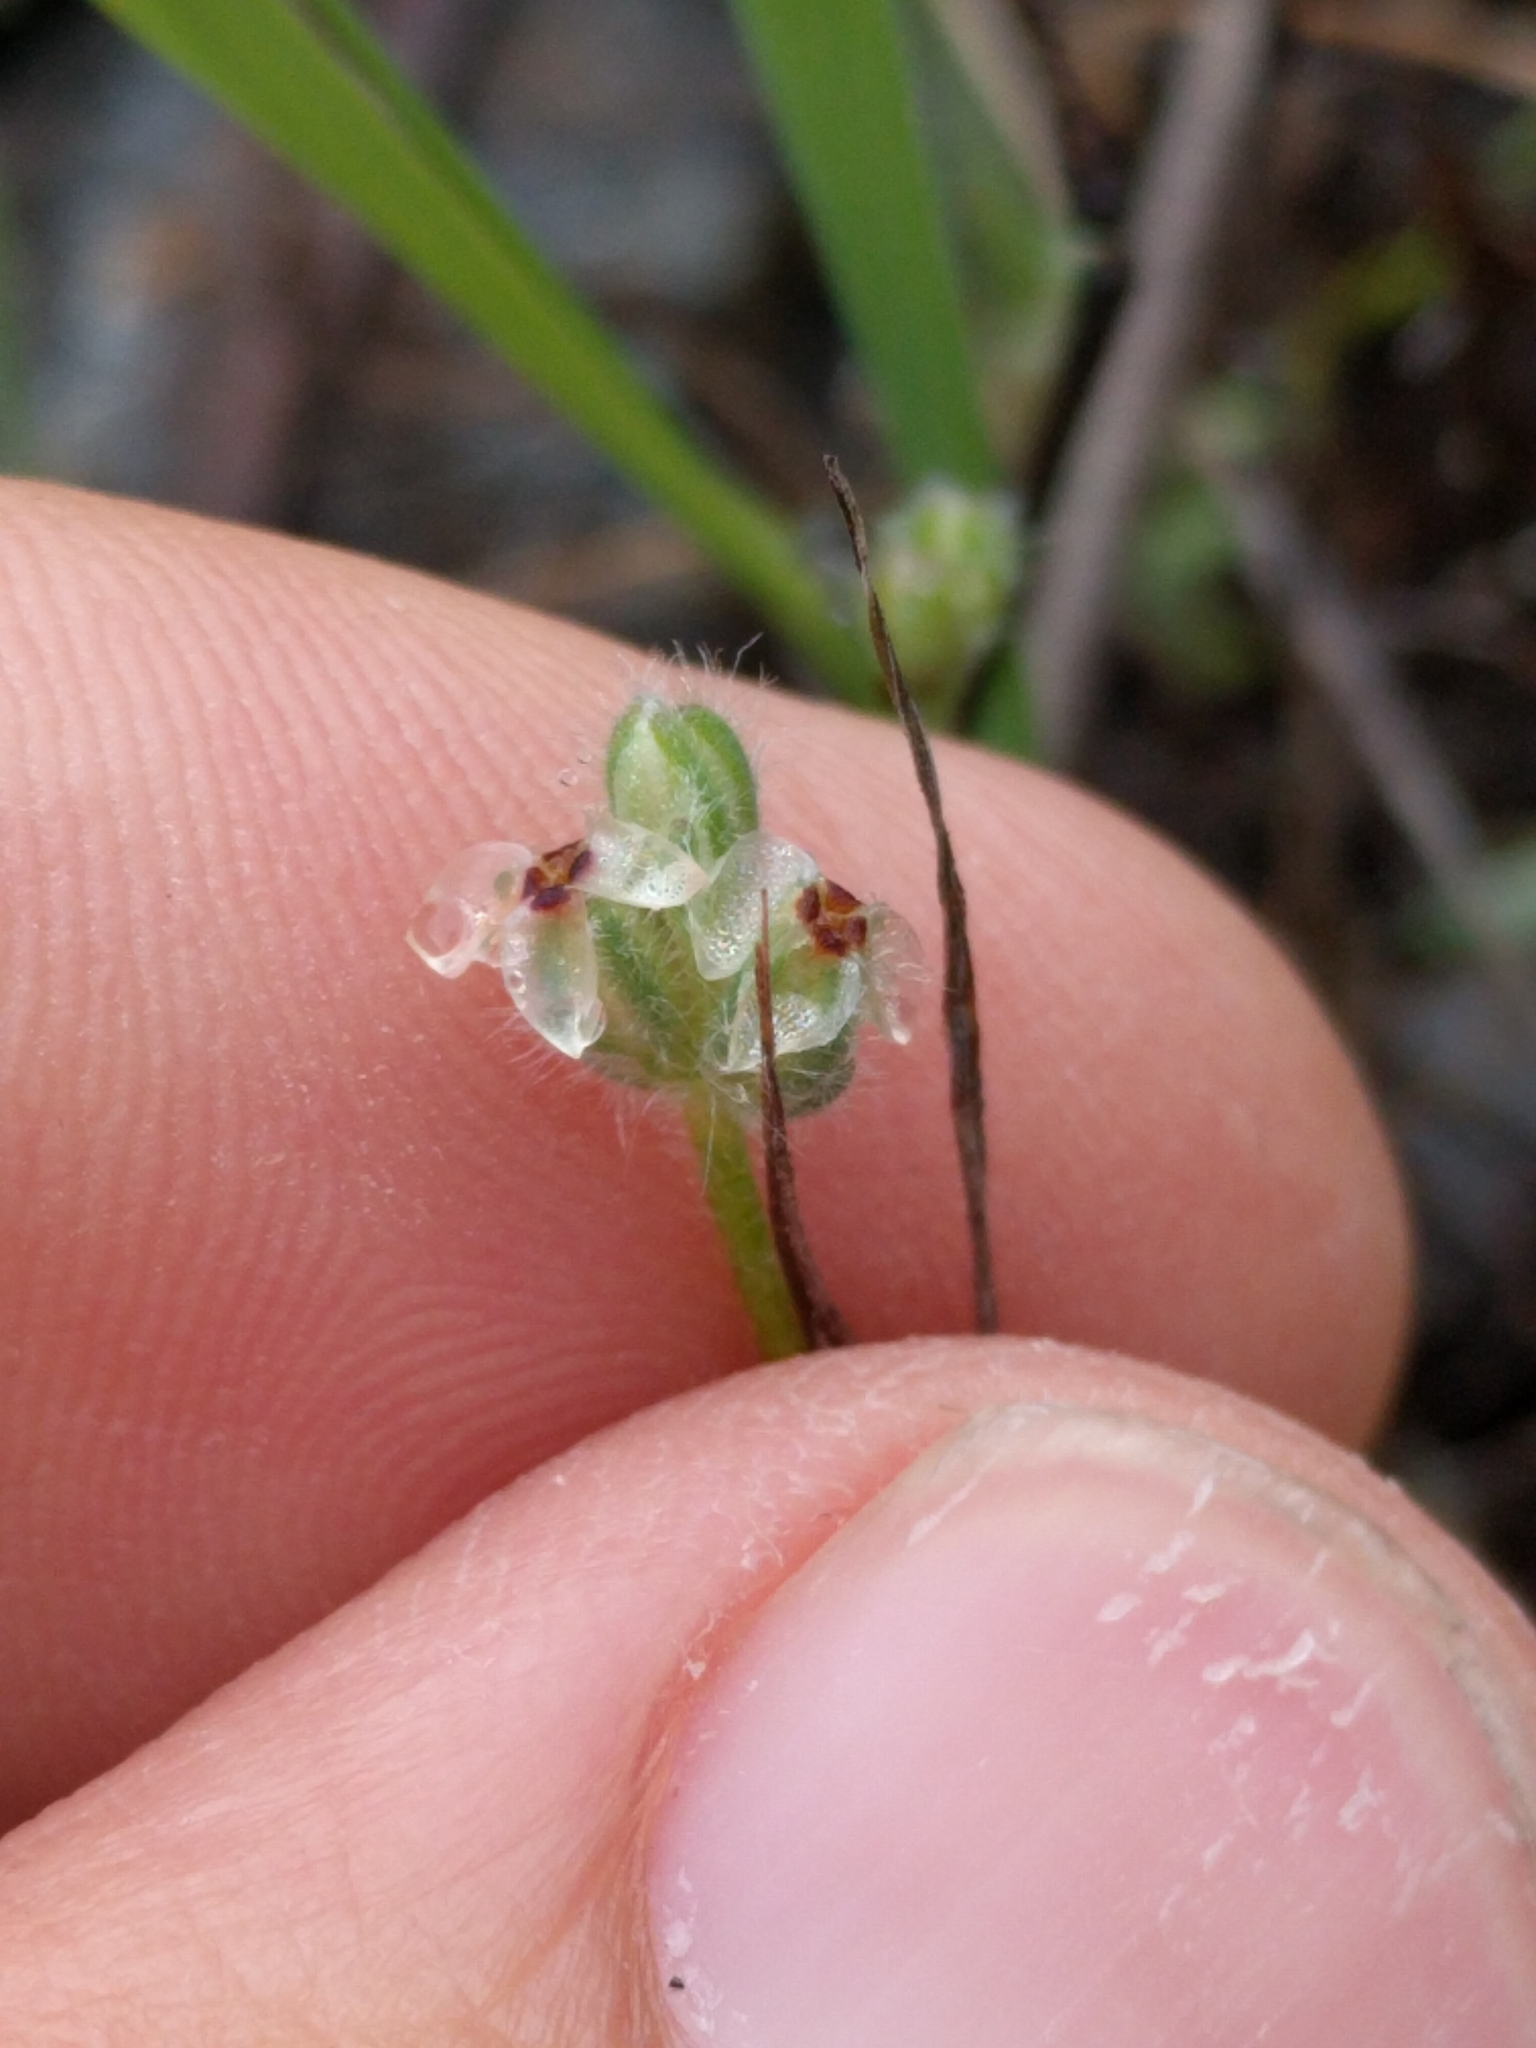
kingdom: Plantae
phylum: Tracheophyta
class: Magnoliopsida
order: Lamiales
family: Plantaginaceae
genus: Plantago
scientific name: Plantago erecta
